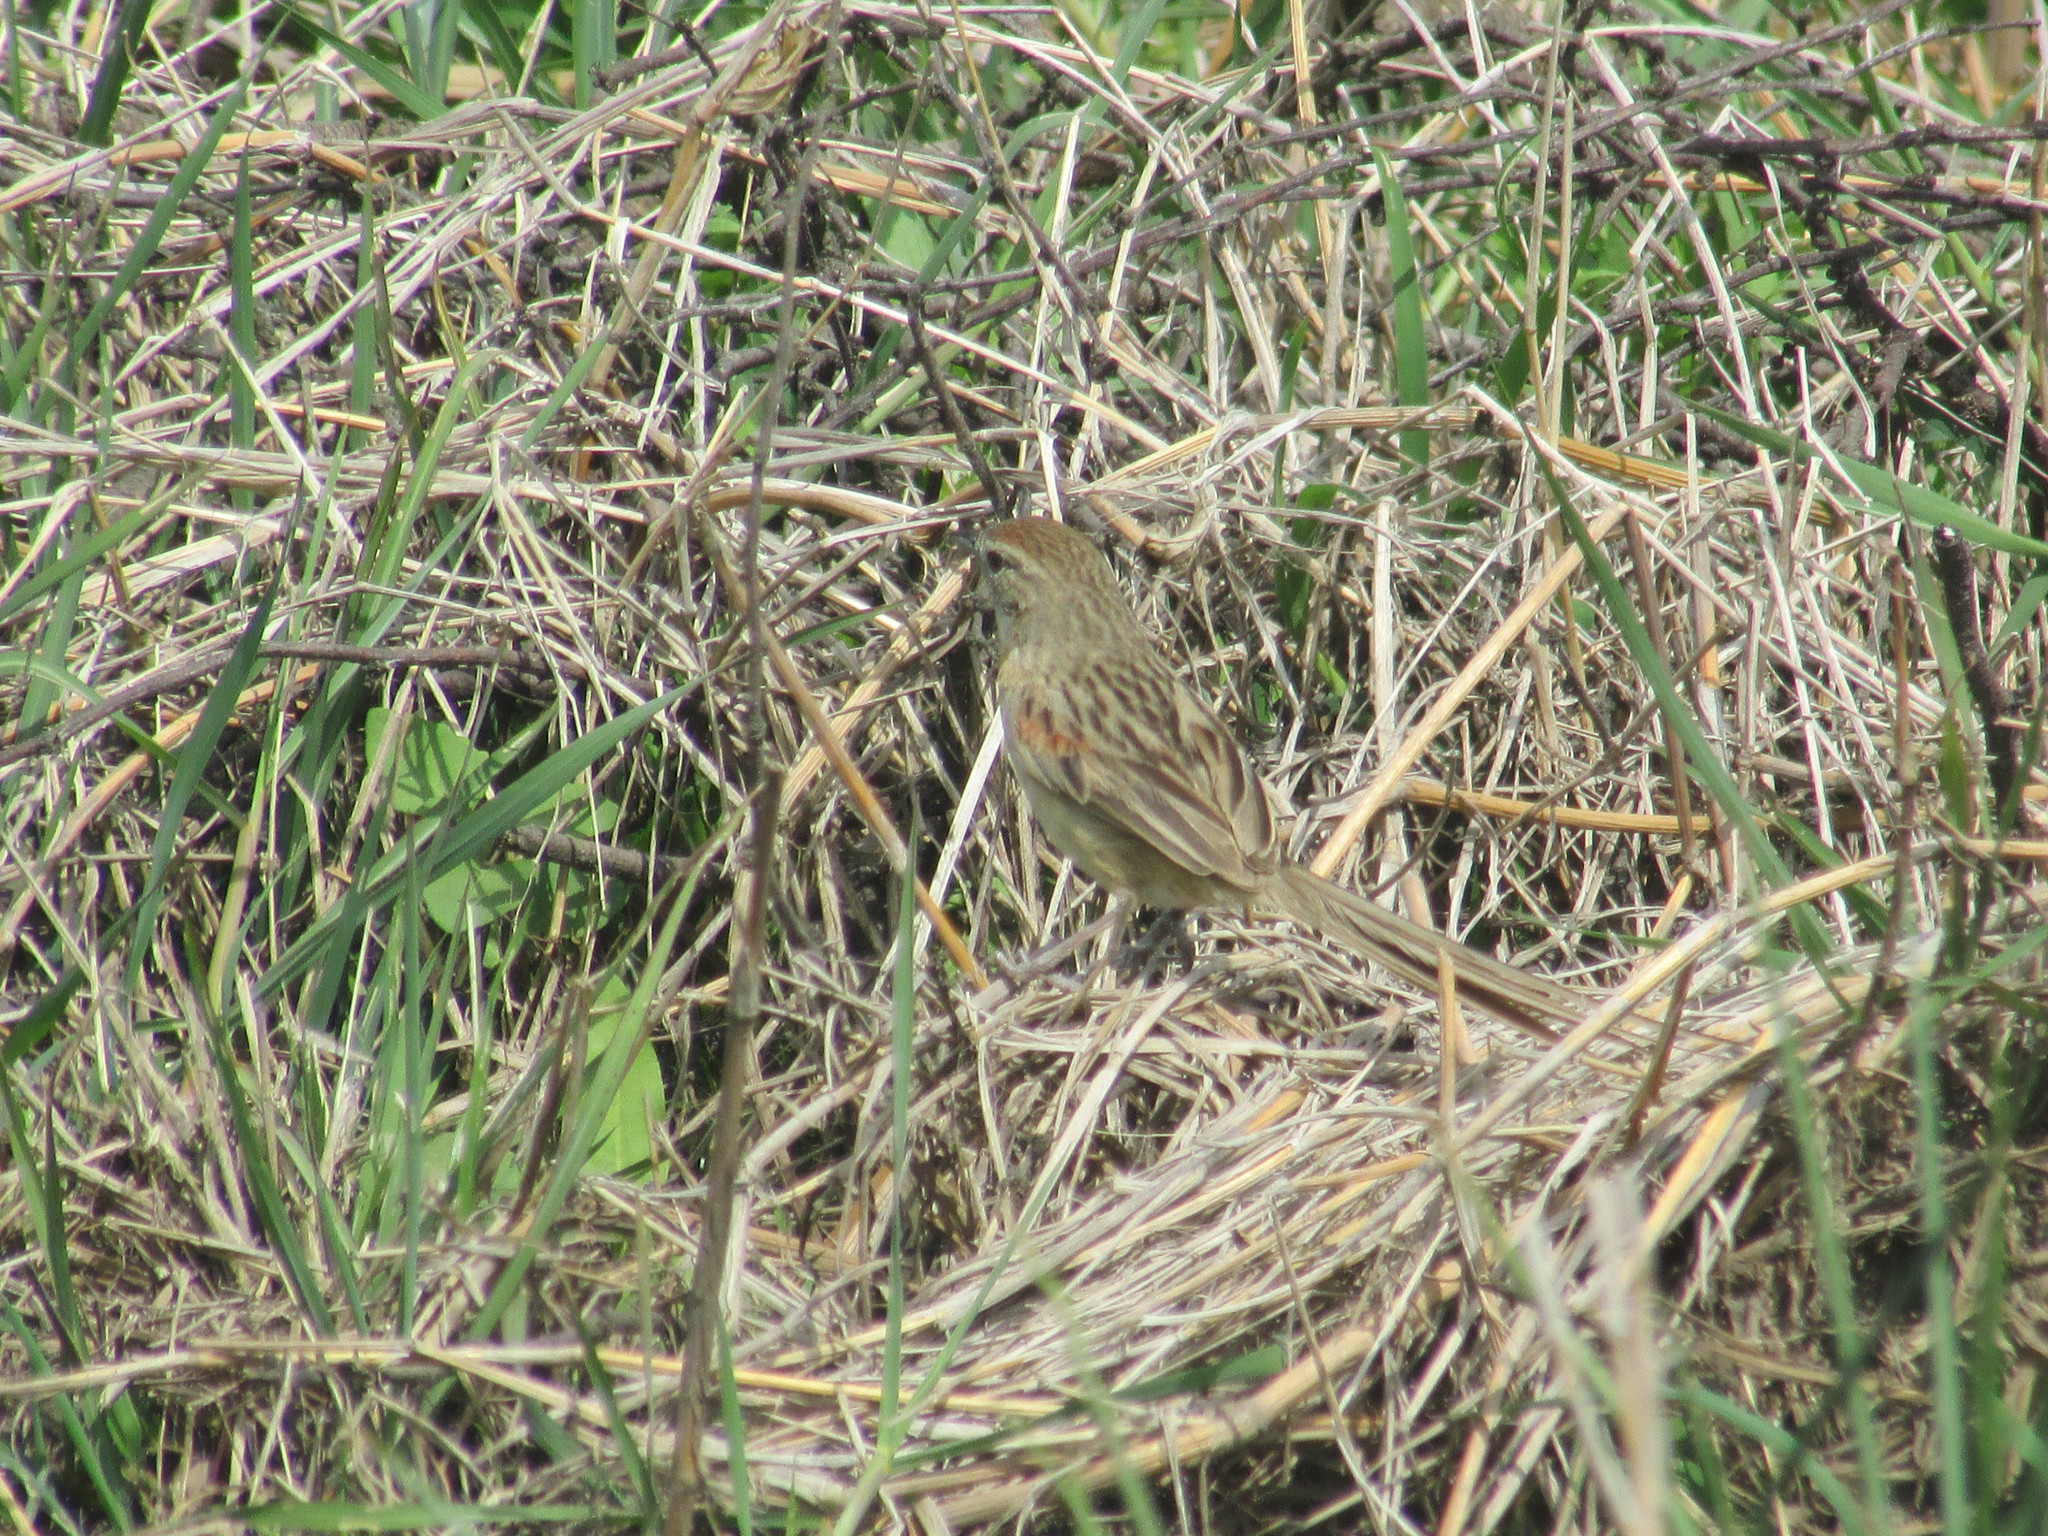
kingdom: Animalia
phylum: Chordata
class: Aves
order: Passeriformes
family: Furnariidae
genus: Schoeniophylax
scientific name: Schoeniophylax phryganophilus
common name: Chotoy spinetail
